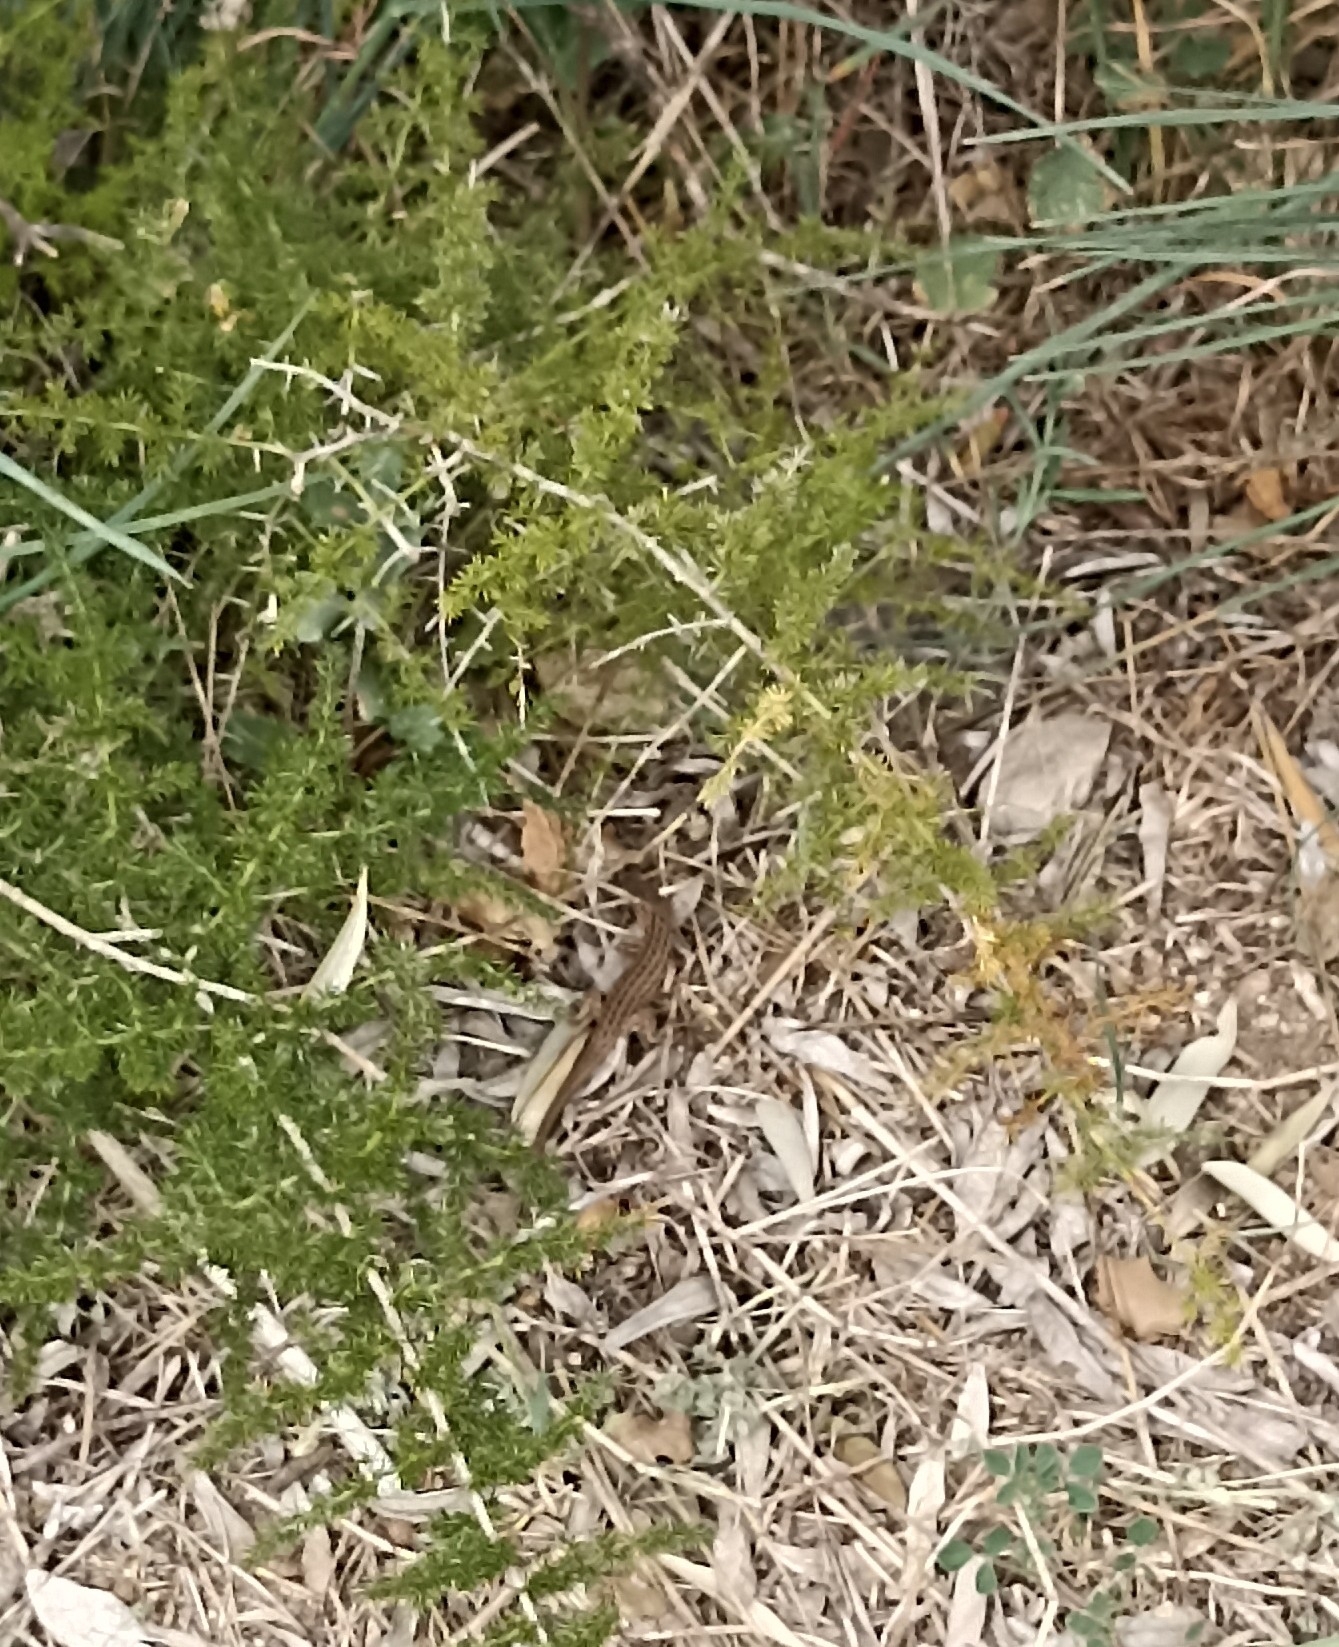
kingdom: Animalia
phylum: Chordata
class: Squamata
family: Lacertidae
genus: Psammodromus
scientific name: Psammodromus edwarsianus
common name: East iberian psammodromus
